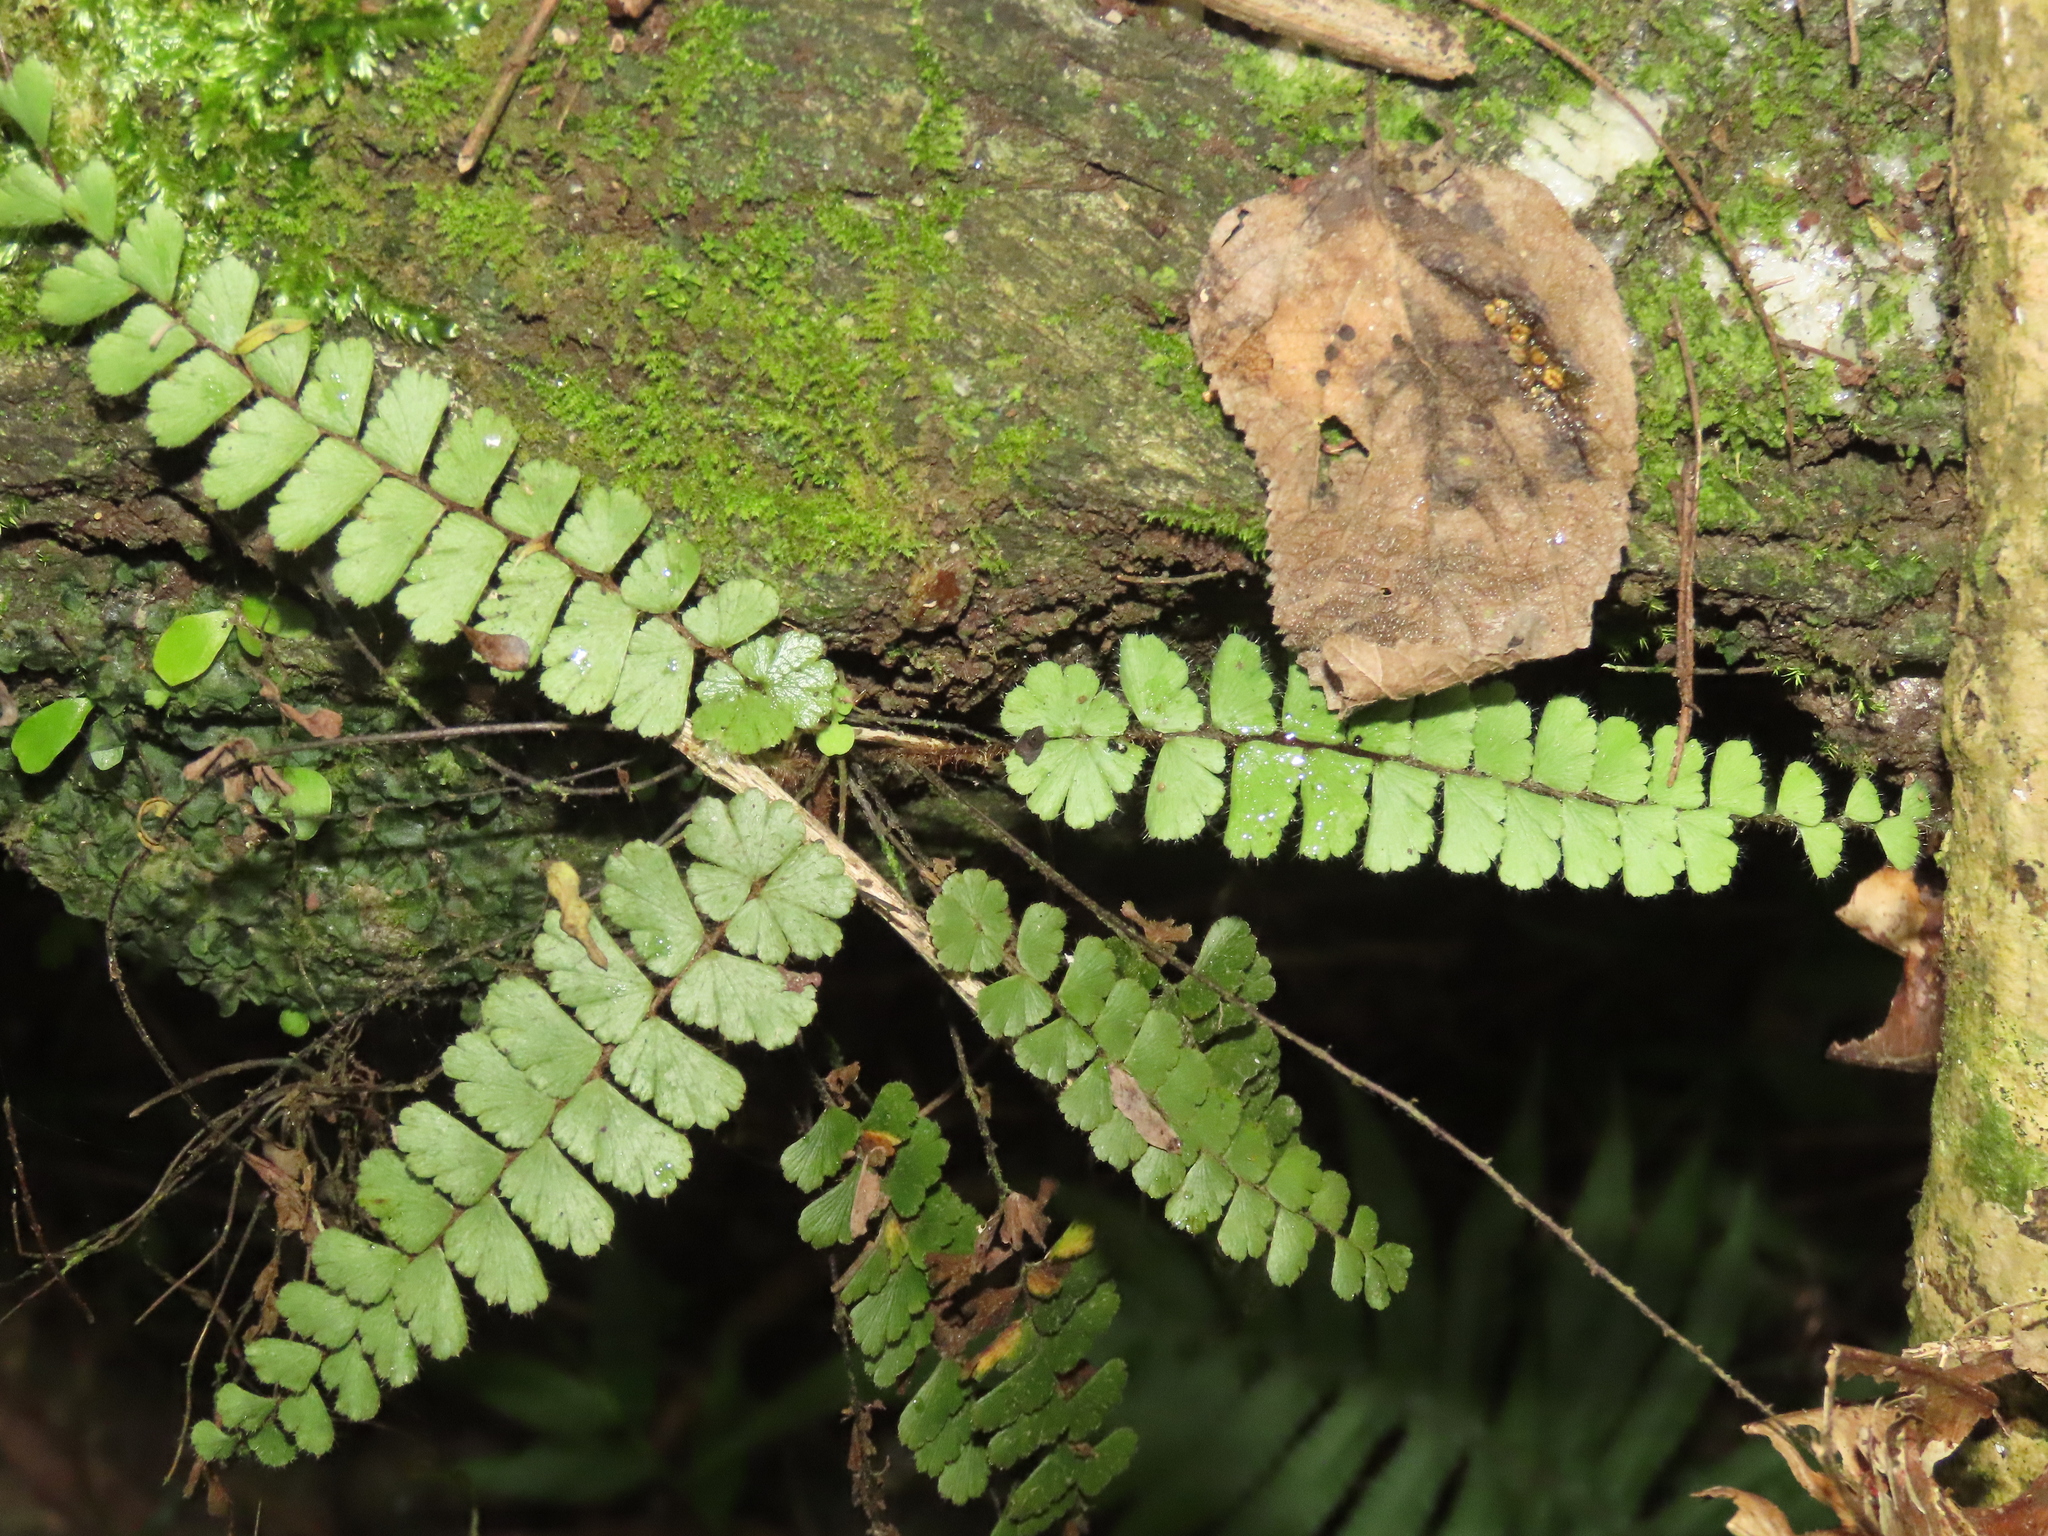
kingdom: Plantae
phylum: Tracheophyta
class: Polypodiopsida
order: Polypodiales
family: Pteridaceae
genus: Adiantum
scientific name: Adiantum ciliatum
